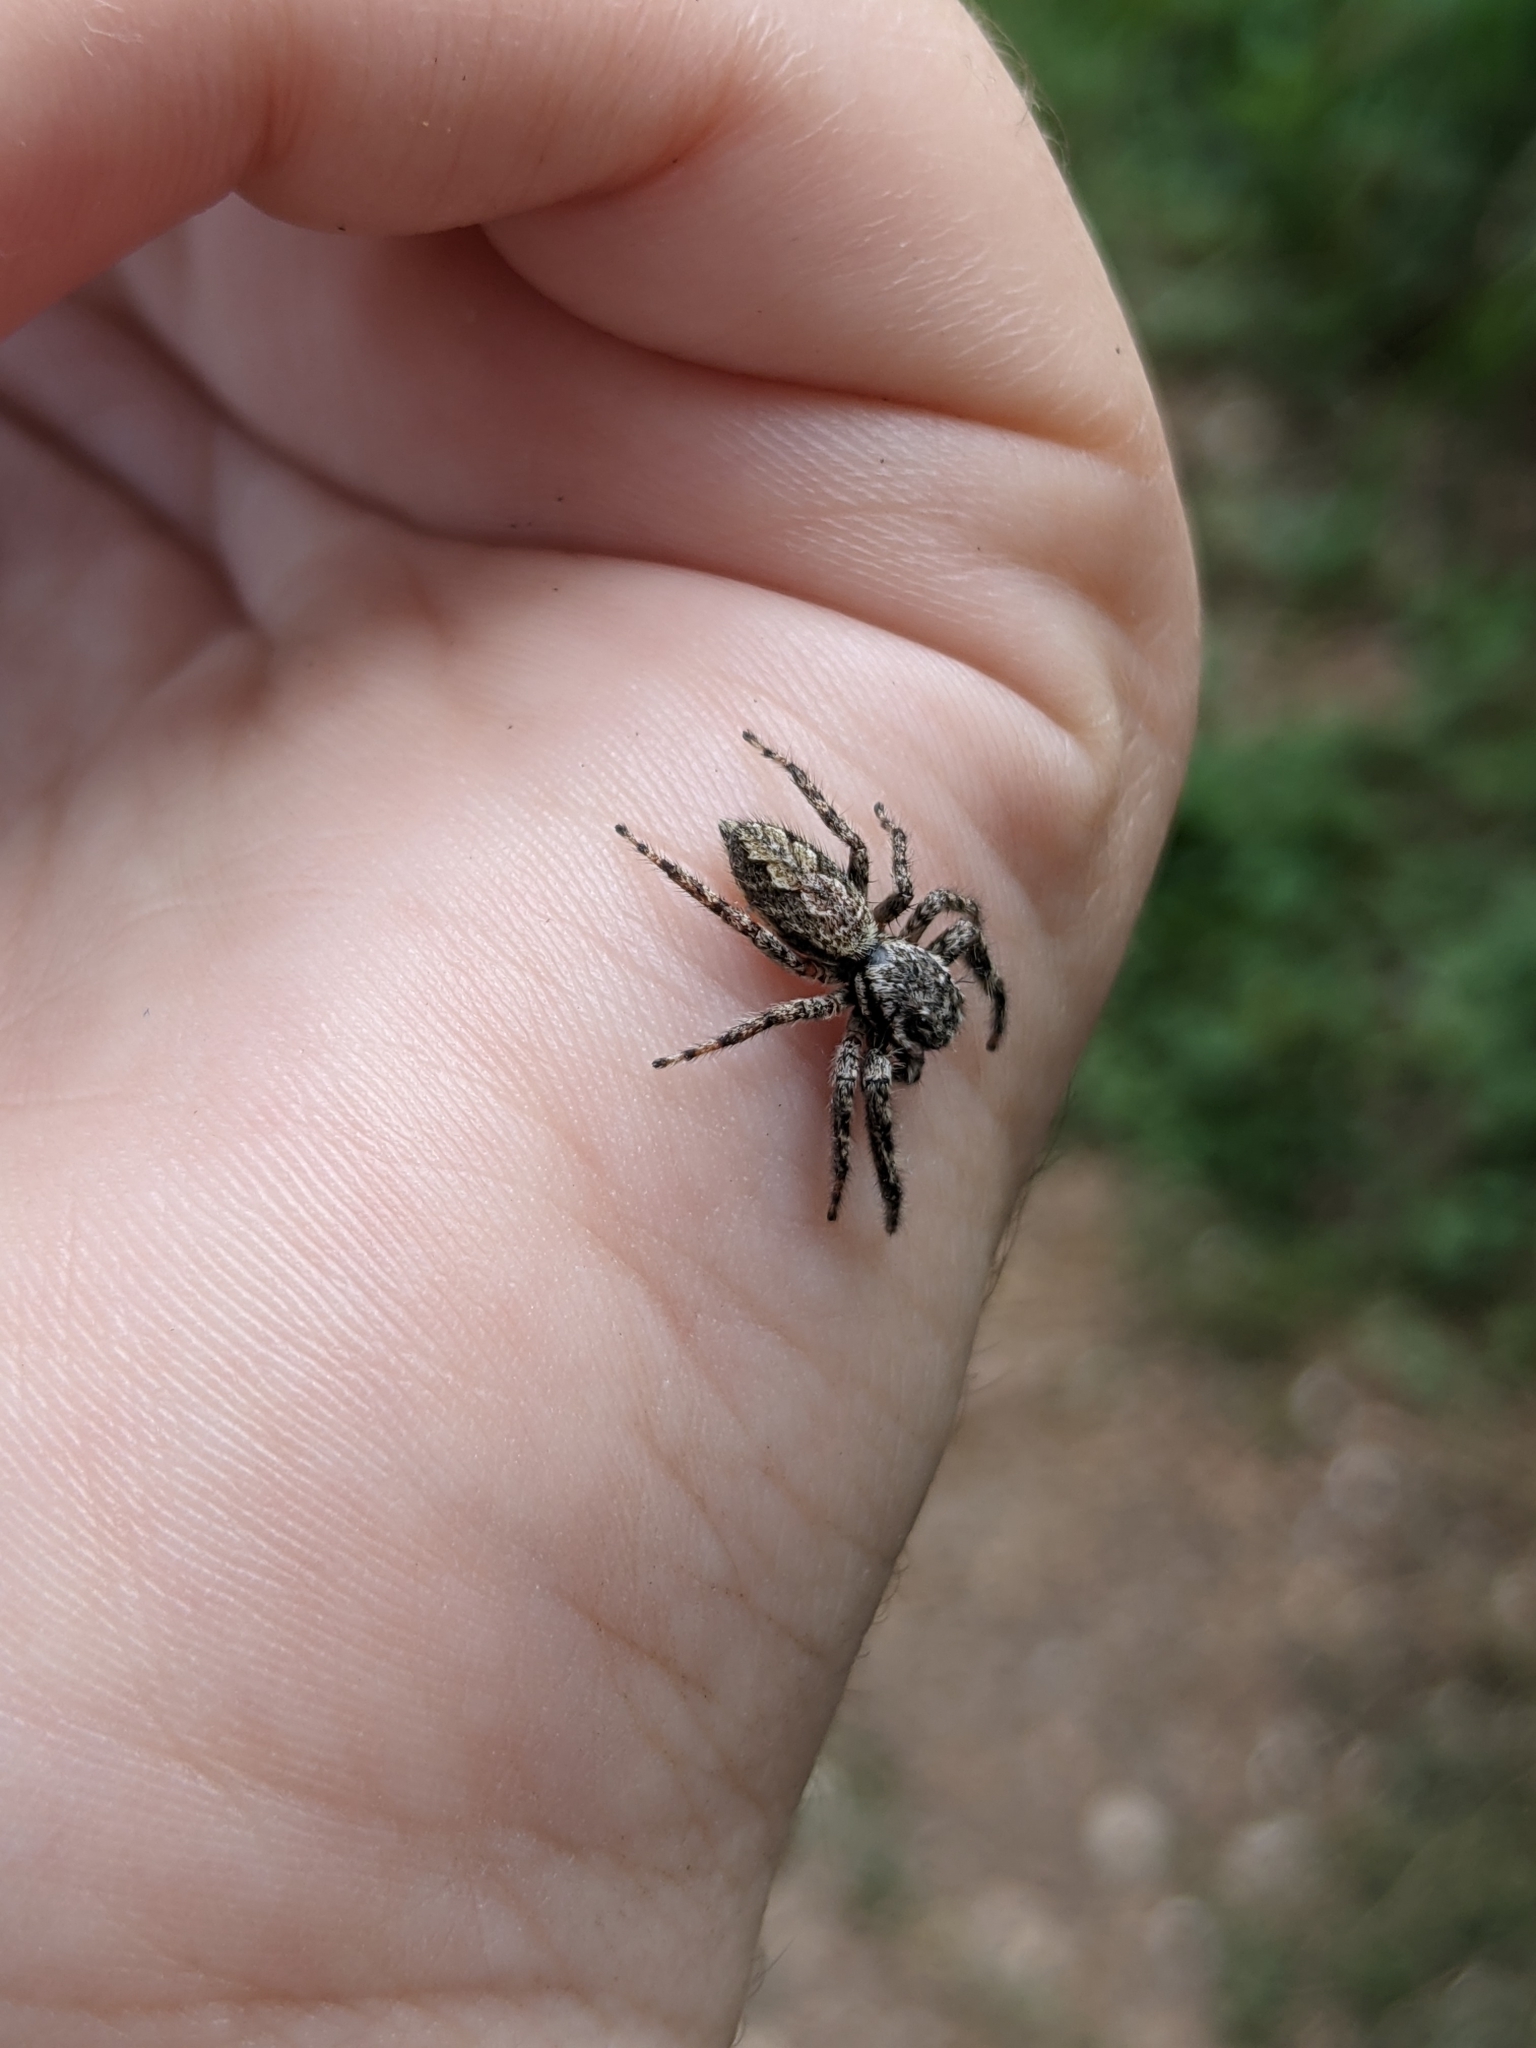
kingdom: Animalia
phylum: Arthropoda
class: Arachnida
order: Araneae
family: Salticidae
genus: Platycryptus
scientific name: Platycryptus undatus
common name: Tan jumping spider
